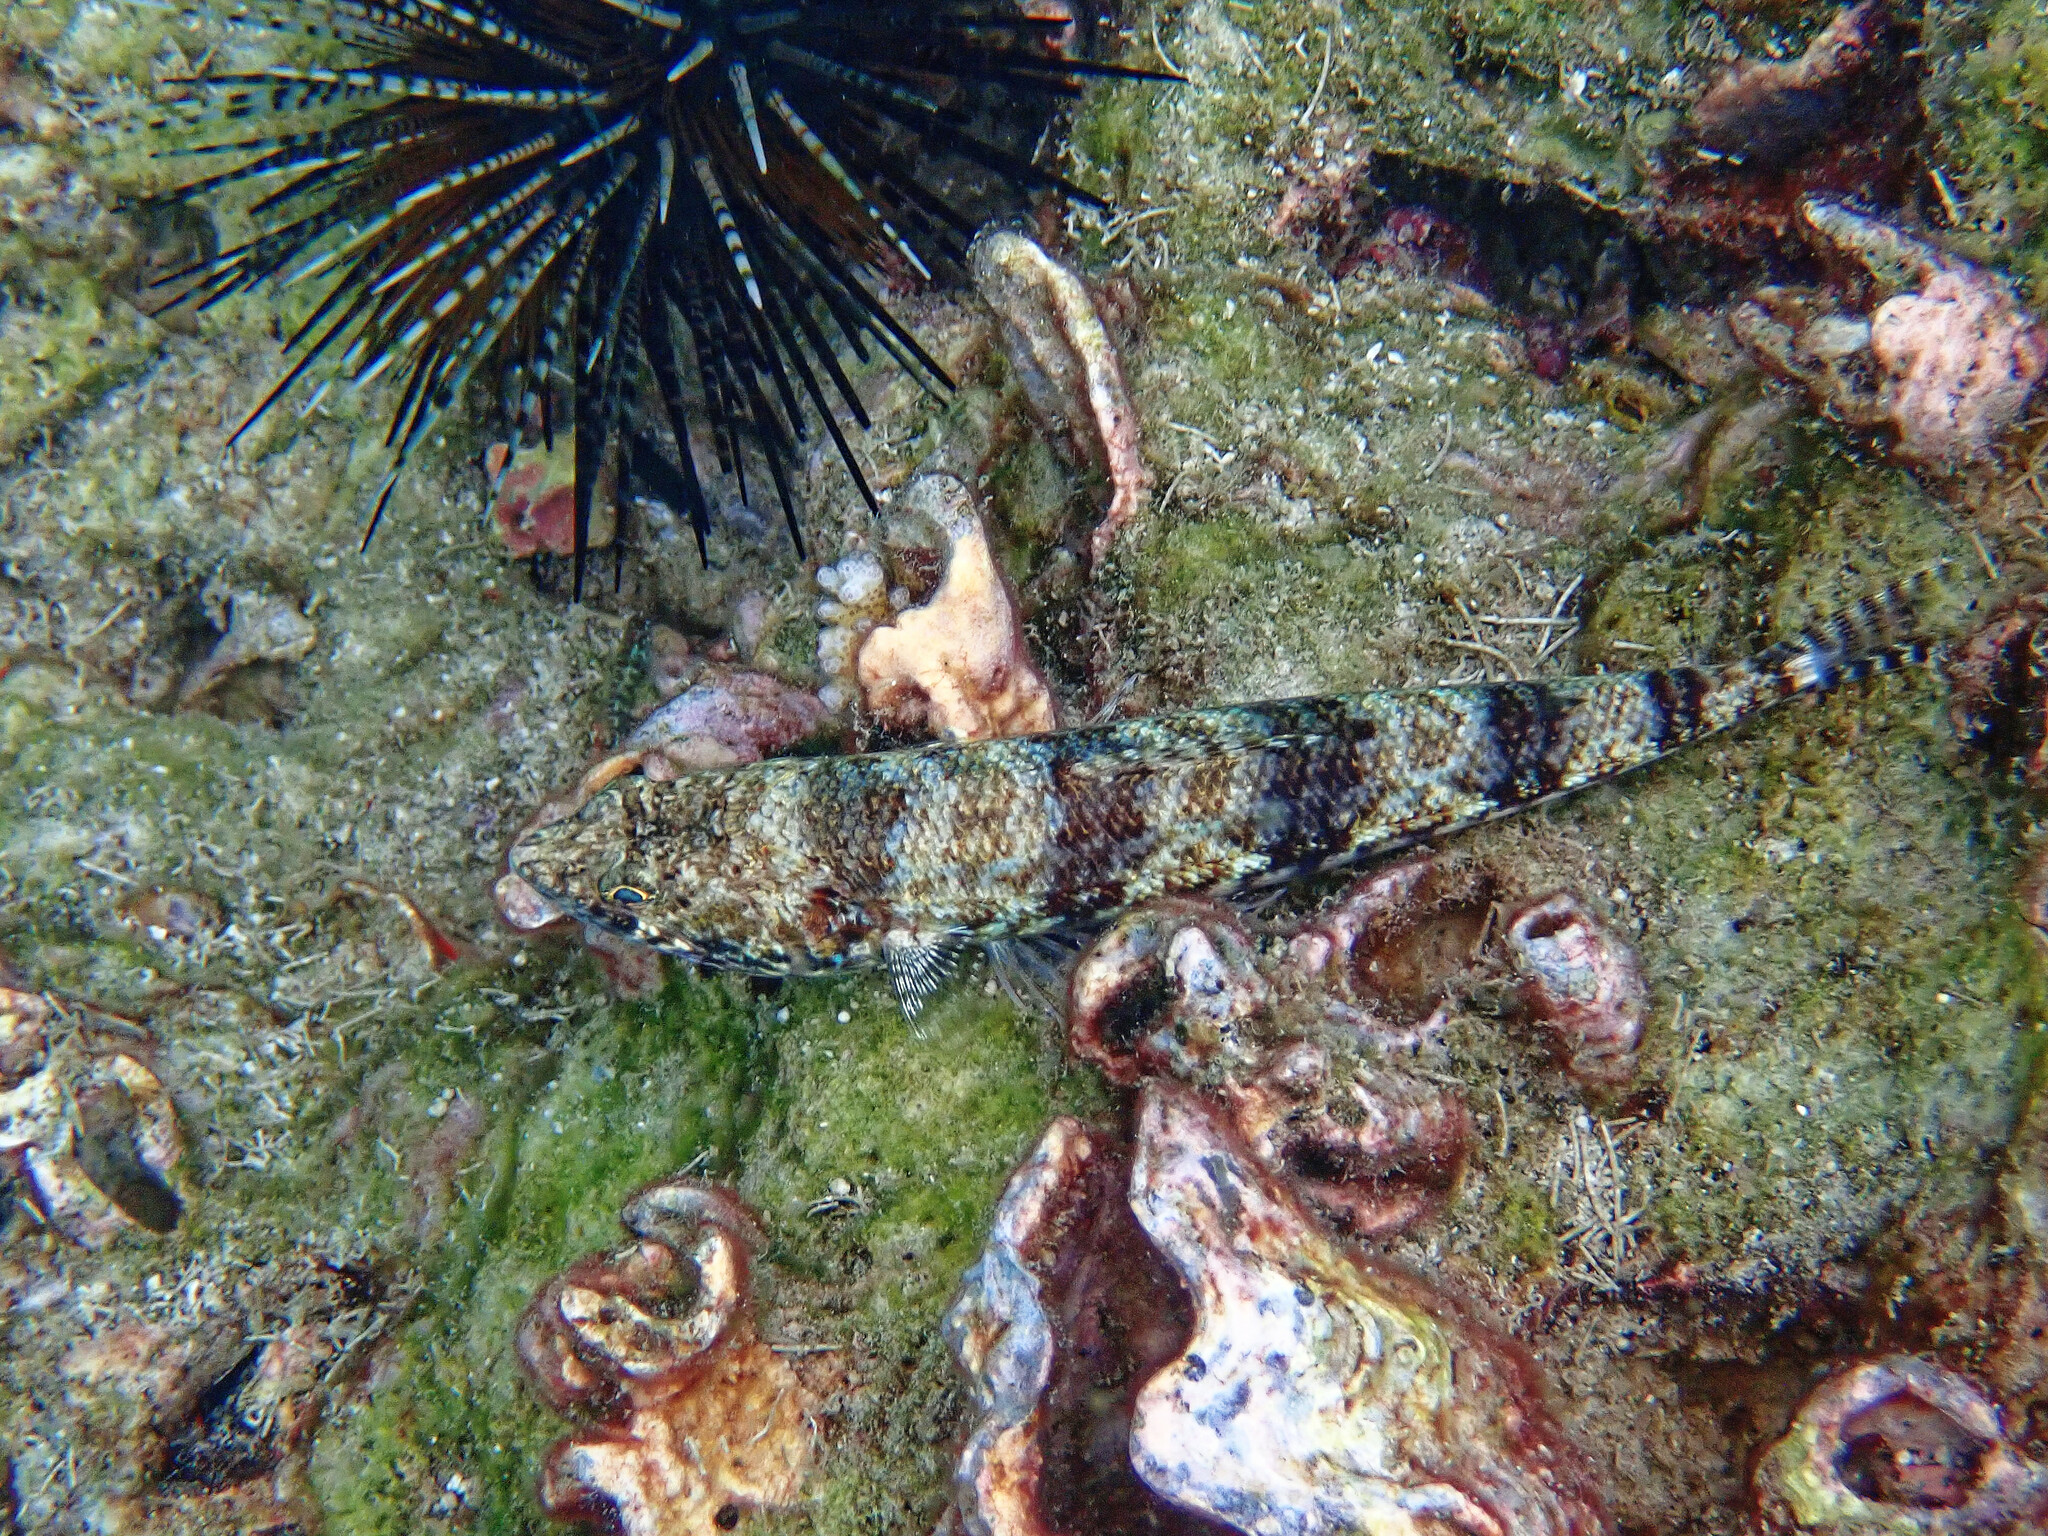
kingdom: Animalia
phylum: Chordata
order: Aulopiformes
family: Synodontidae
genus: Synodus
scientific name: Synodus variegatus
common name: Variegated lizardfish
